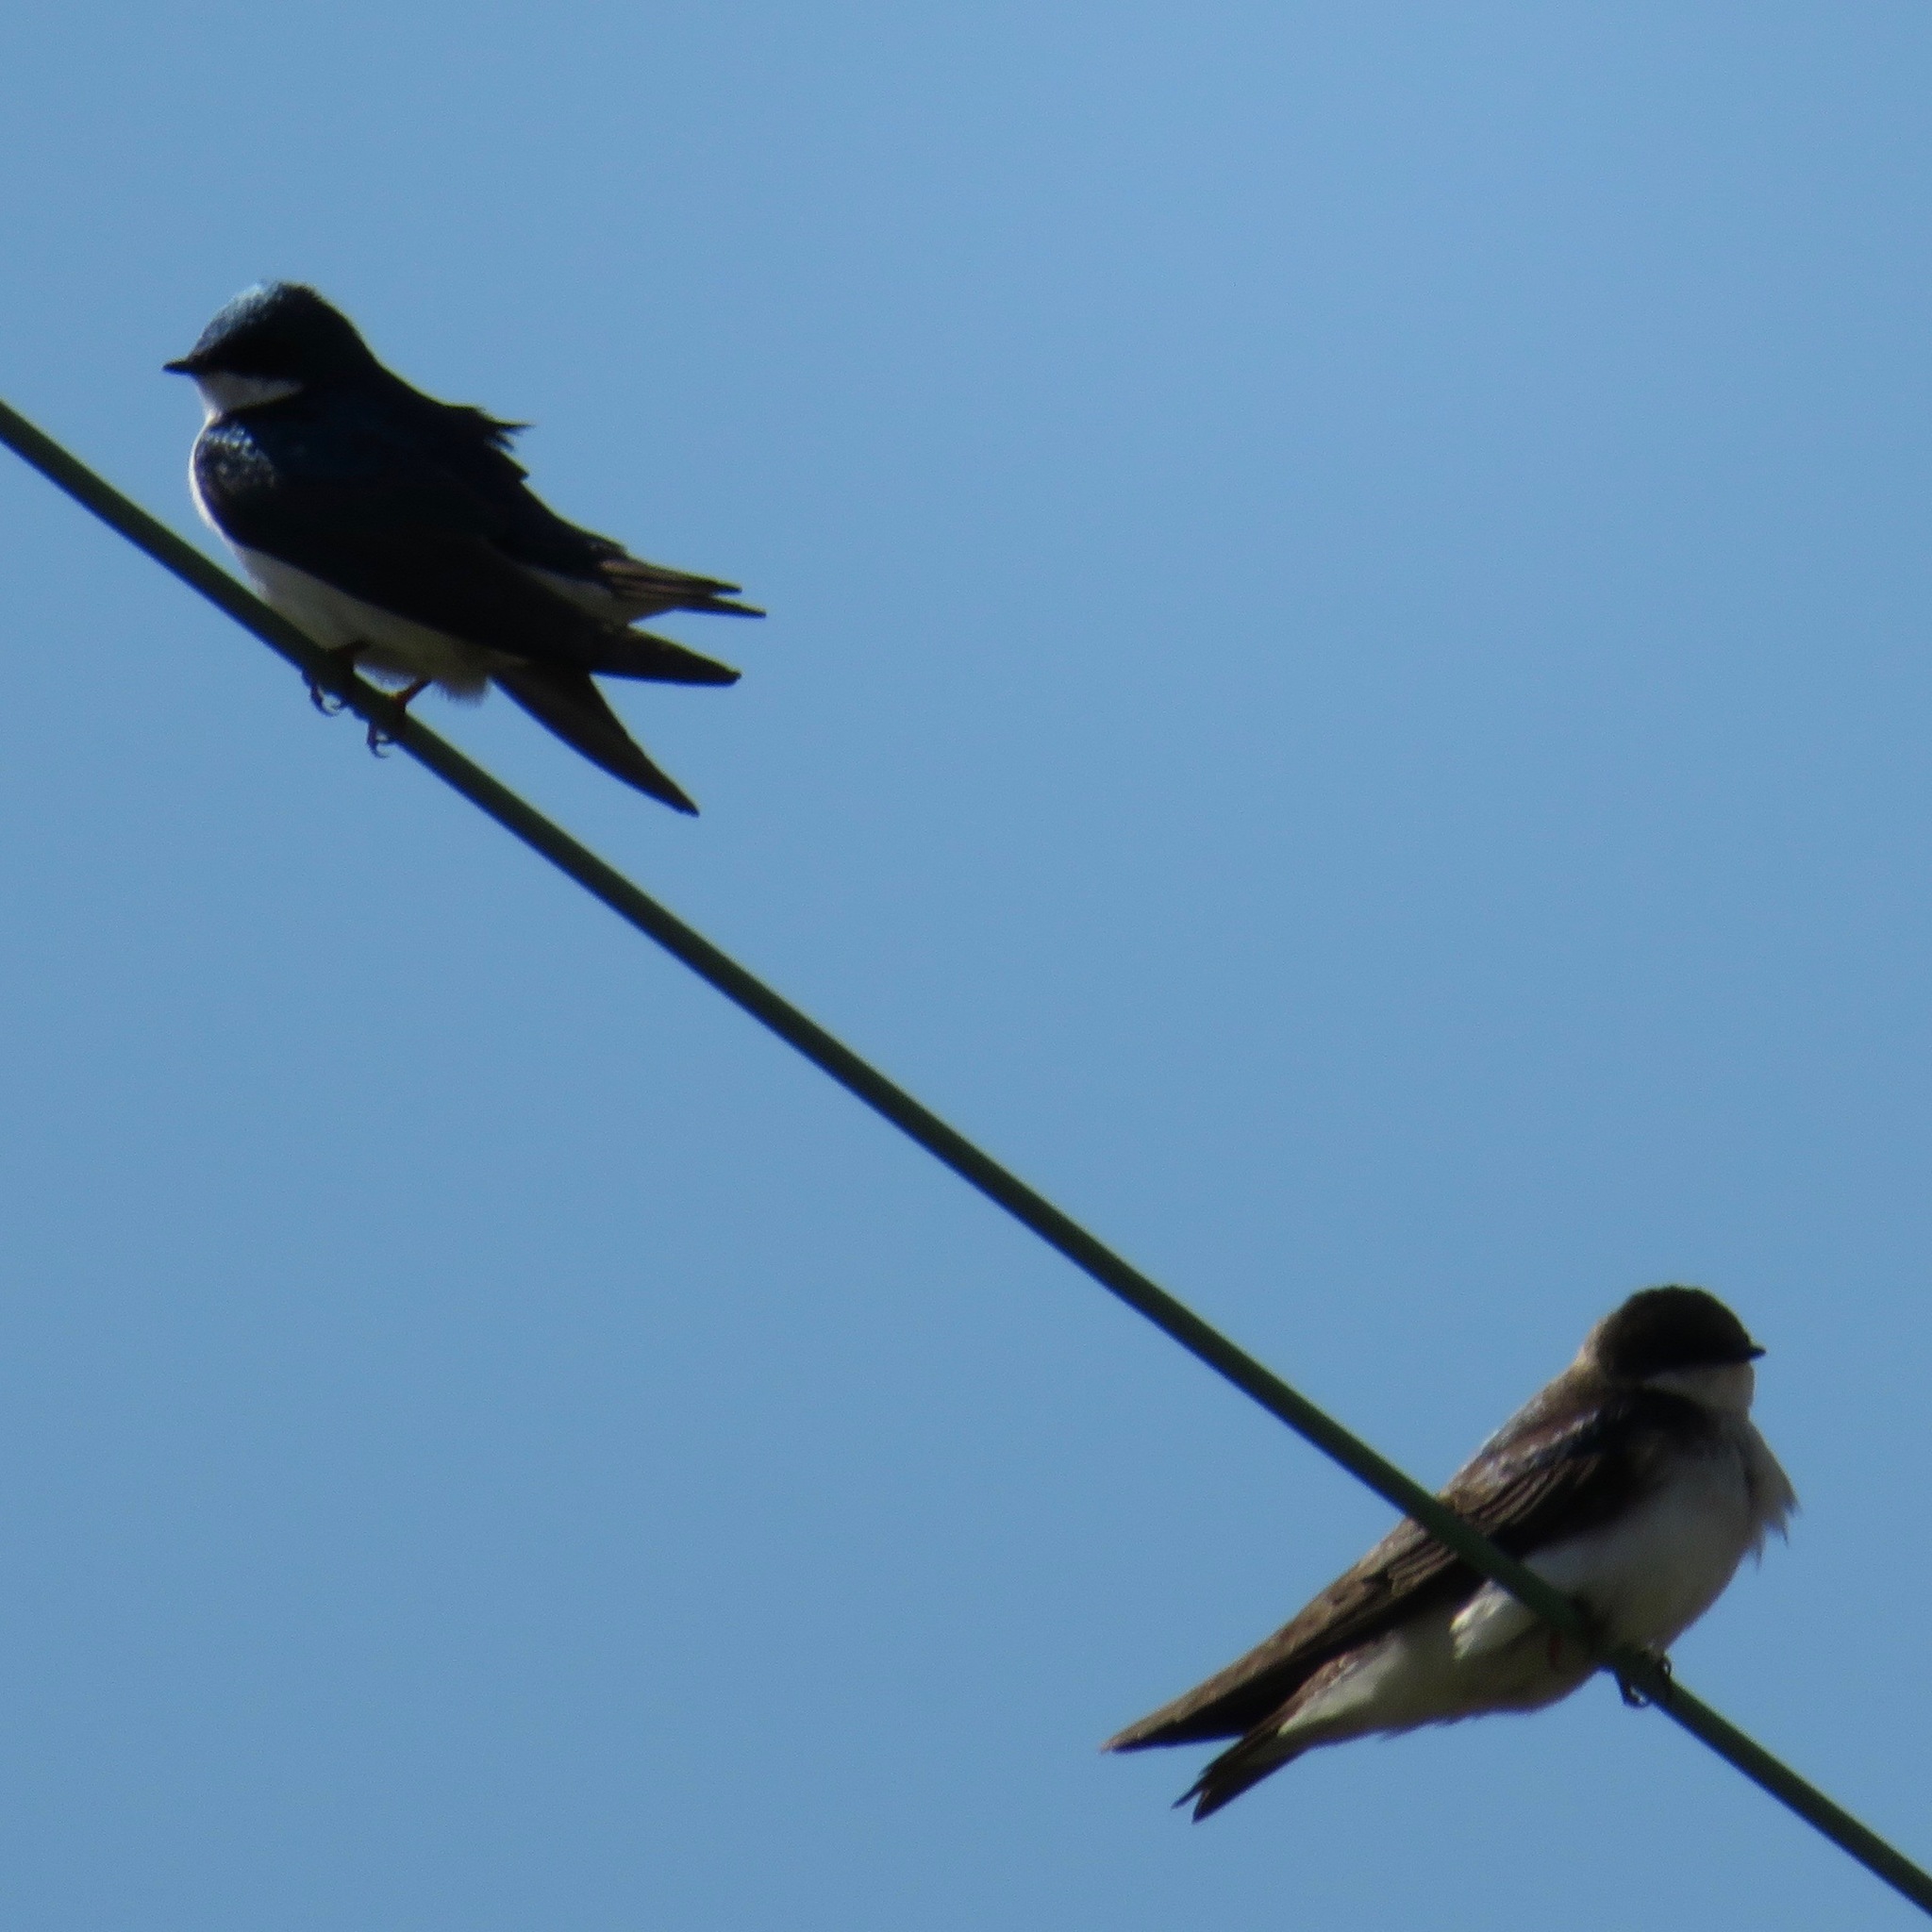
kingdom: Animalia
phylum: Chordata
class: Aves
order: Passeriformes
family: Hirundinidae
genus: Tachycineta
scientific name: Tachycineta bicolor
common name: Tree swallow
